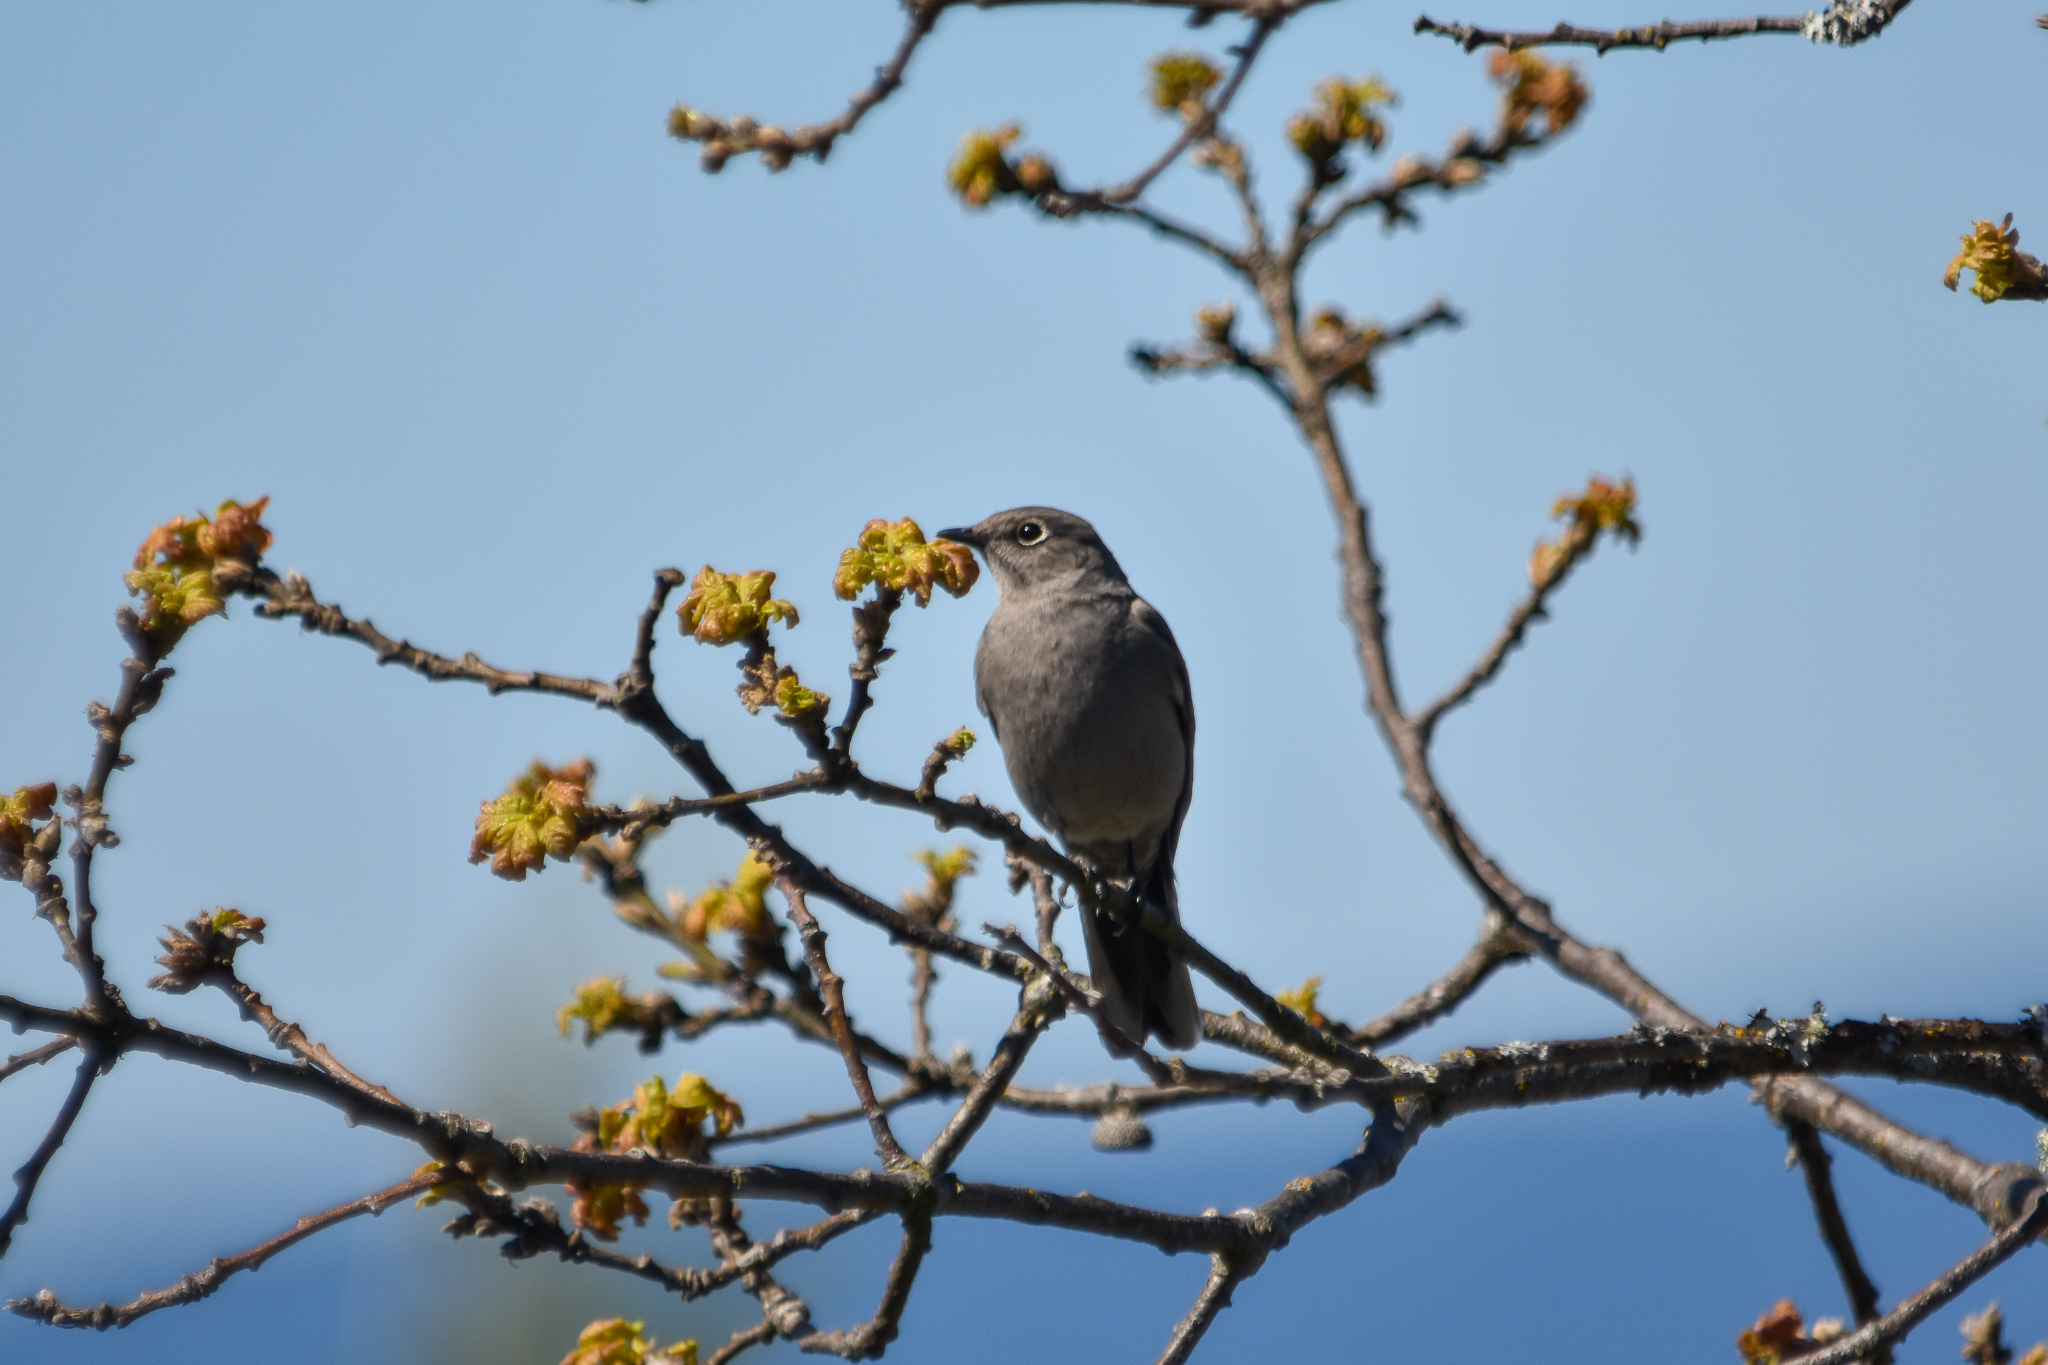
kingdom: Animalia
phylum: Chordata
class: Aves
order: Passeriformes
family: Turdidae
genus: Myadestes
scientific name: Myadestes townsendi
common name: Townsend's solitaire
